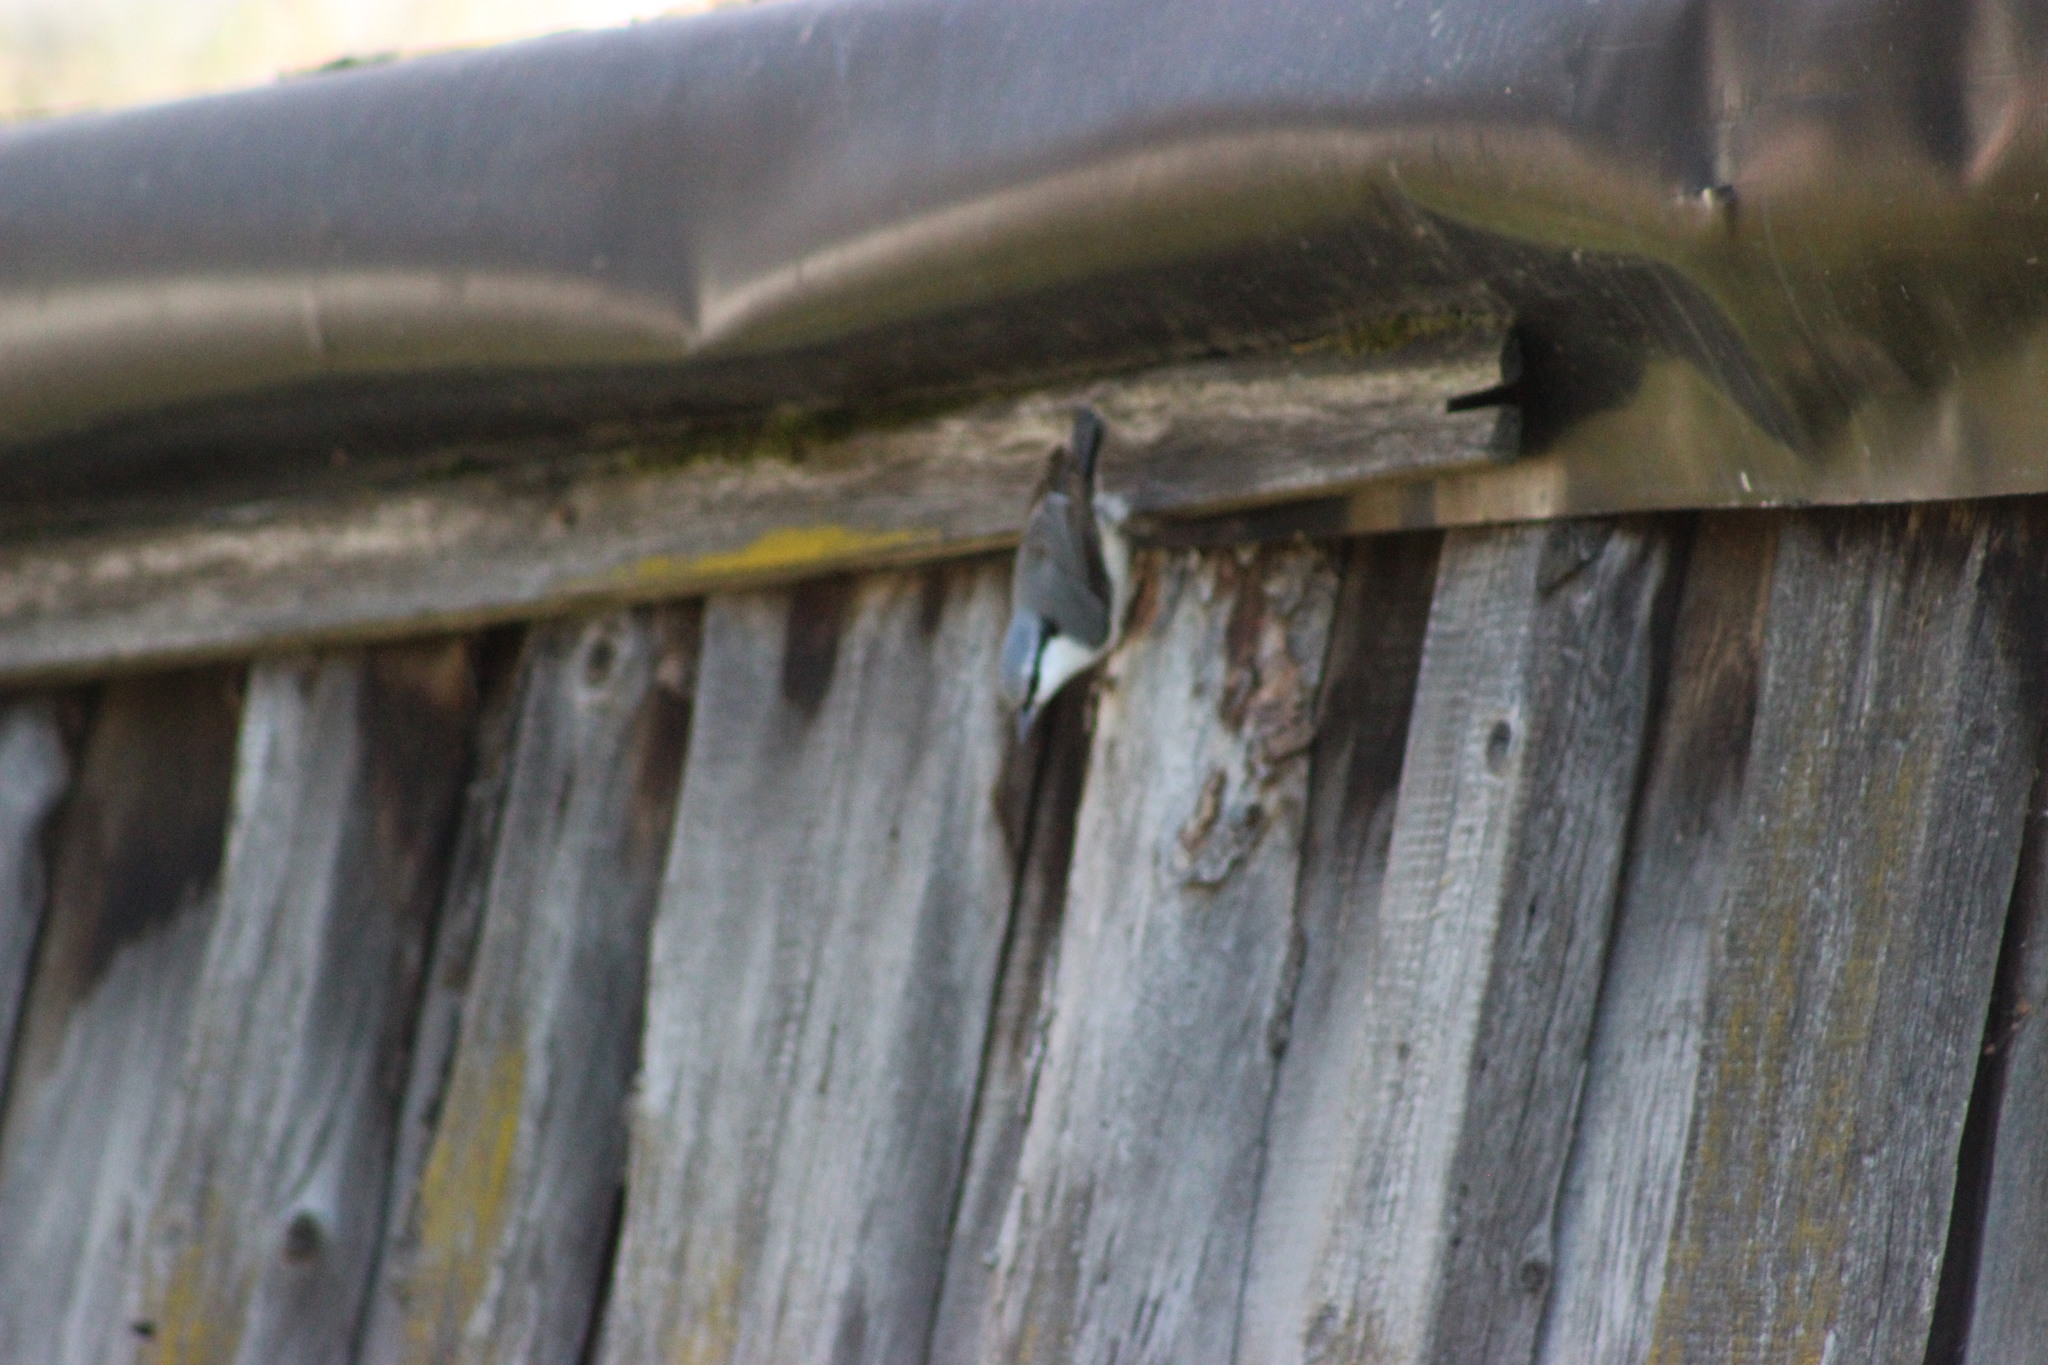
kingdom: Animalia
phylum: Chordata
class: Aves
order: Passeriformes
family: Sittidae
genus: Sitta
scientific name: Sitta europaea
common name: Eurasian nuthatch
